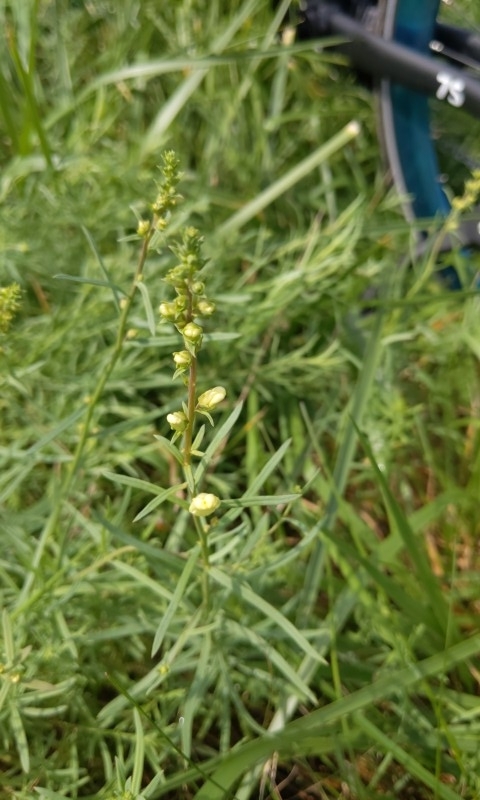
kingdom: Plantae
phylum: Tracheophyta
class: Magnoliopsida
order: Lamiales
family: Plantaginaceae
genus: Linaria
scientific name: Linaria vulgaris
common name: Butter and eggs
